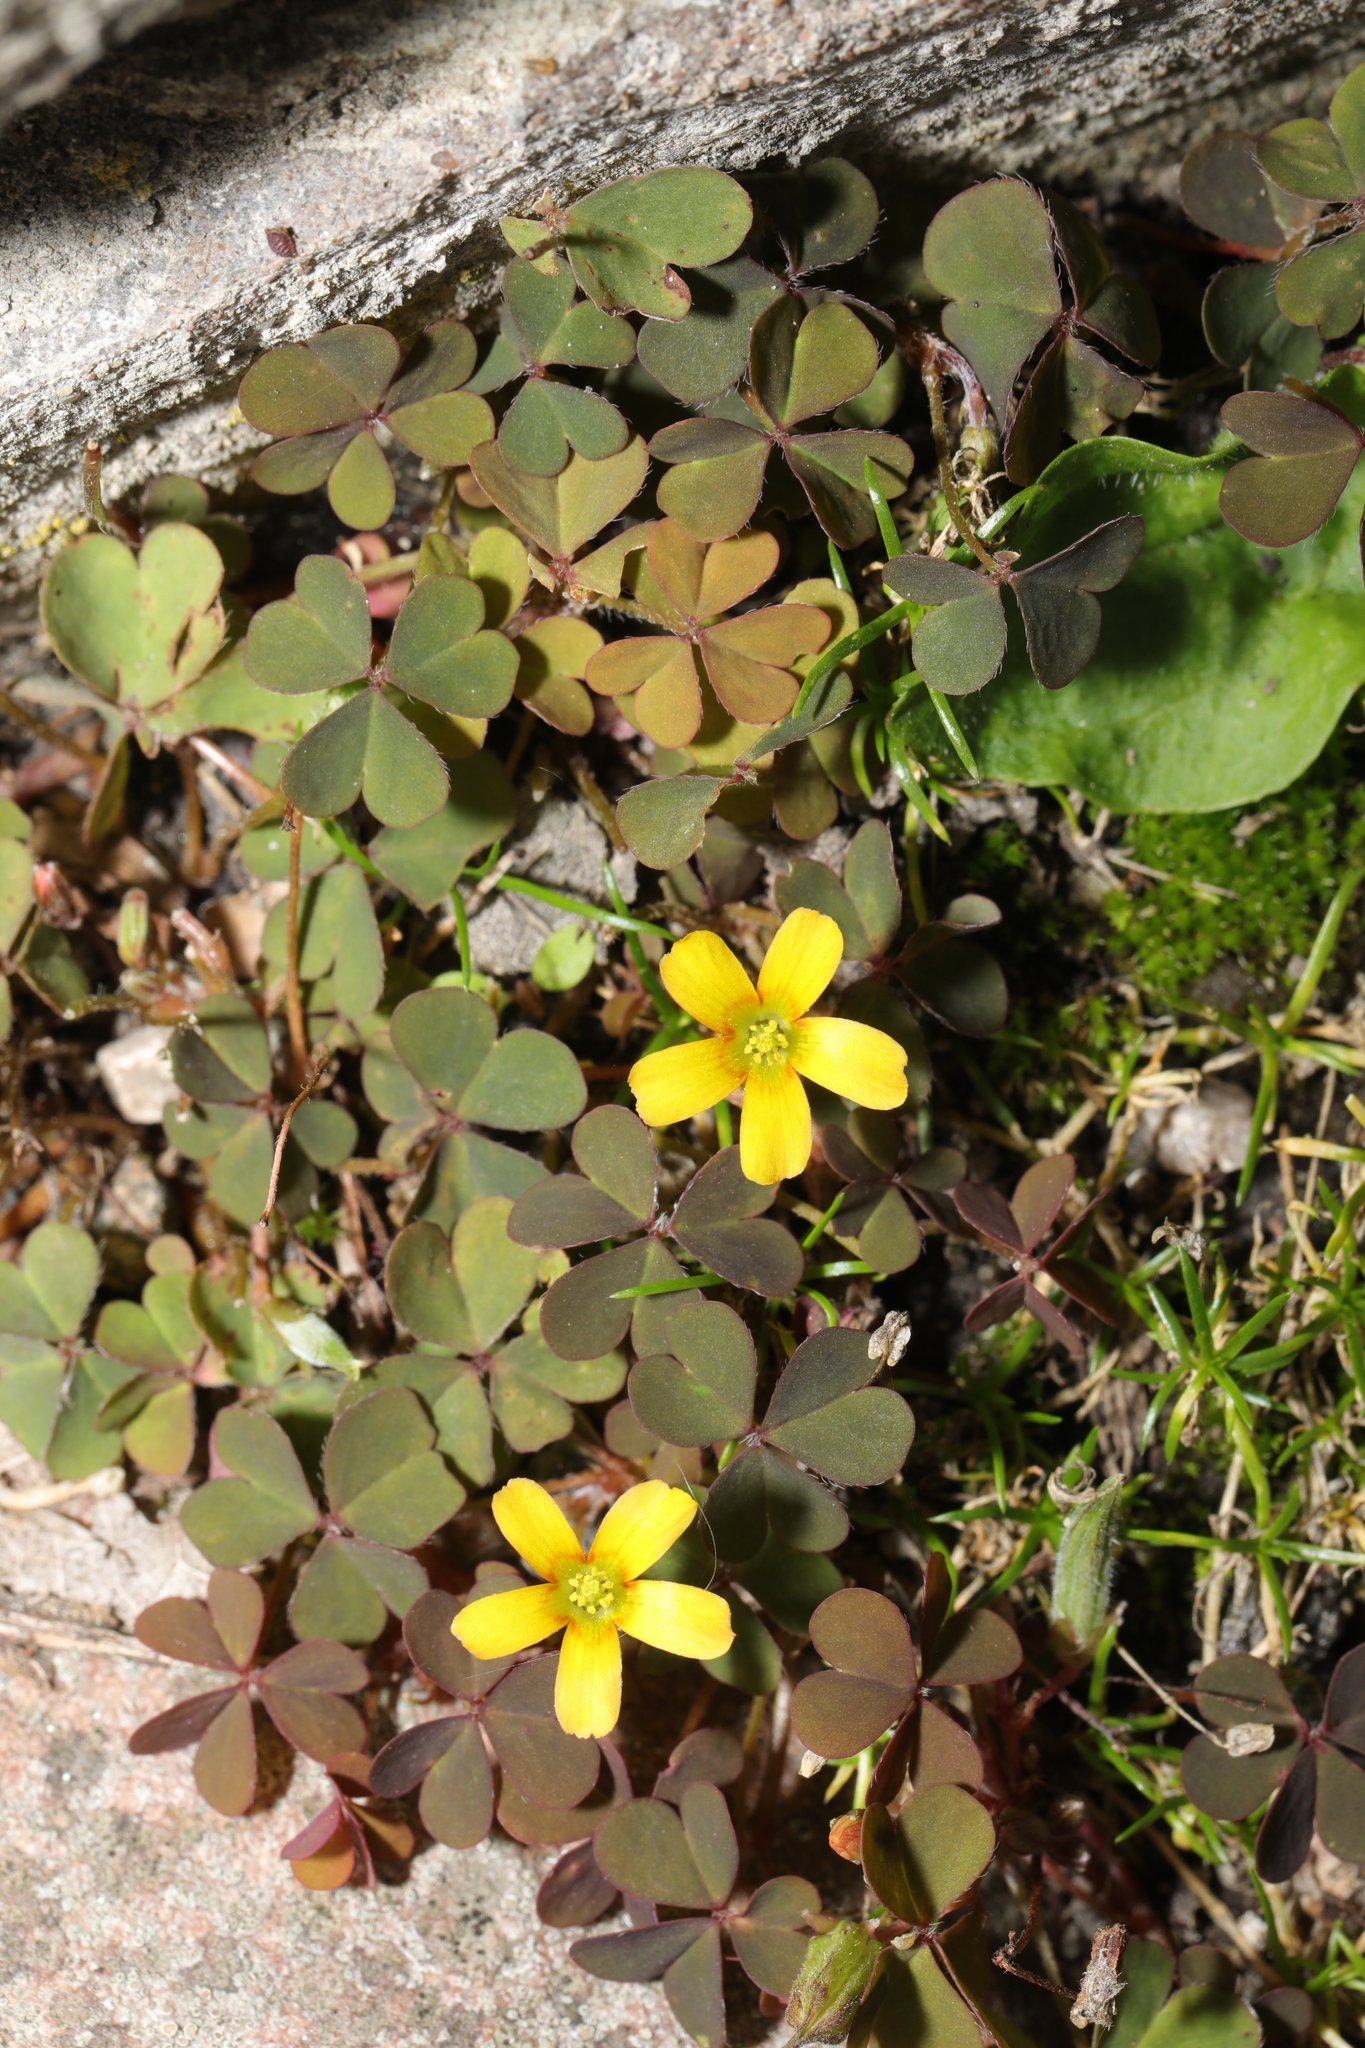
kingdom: Plantae
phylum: Tracheophyta
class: Magnoliopsida
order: Oxalidales
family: Oxalidaceae
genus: Oxalis
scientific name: Oxalis corniculata
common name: Procumbent yellow-sorrel
